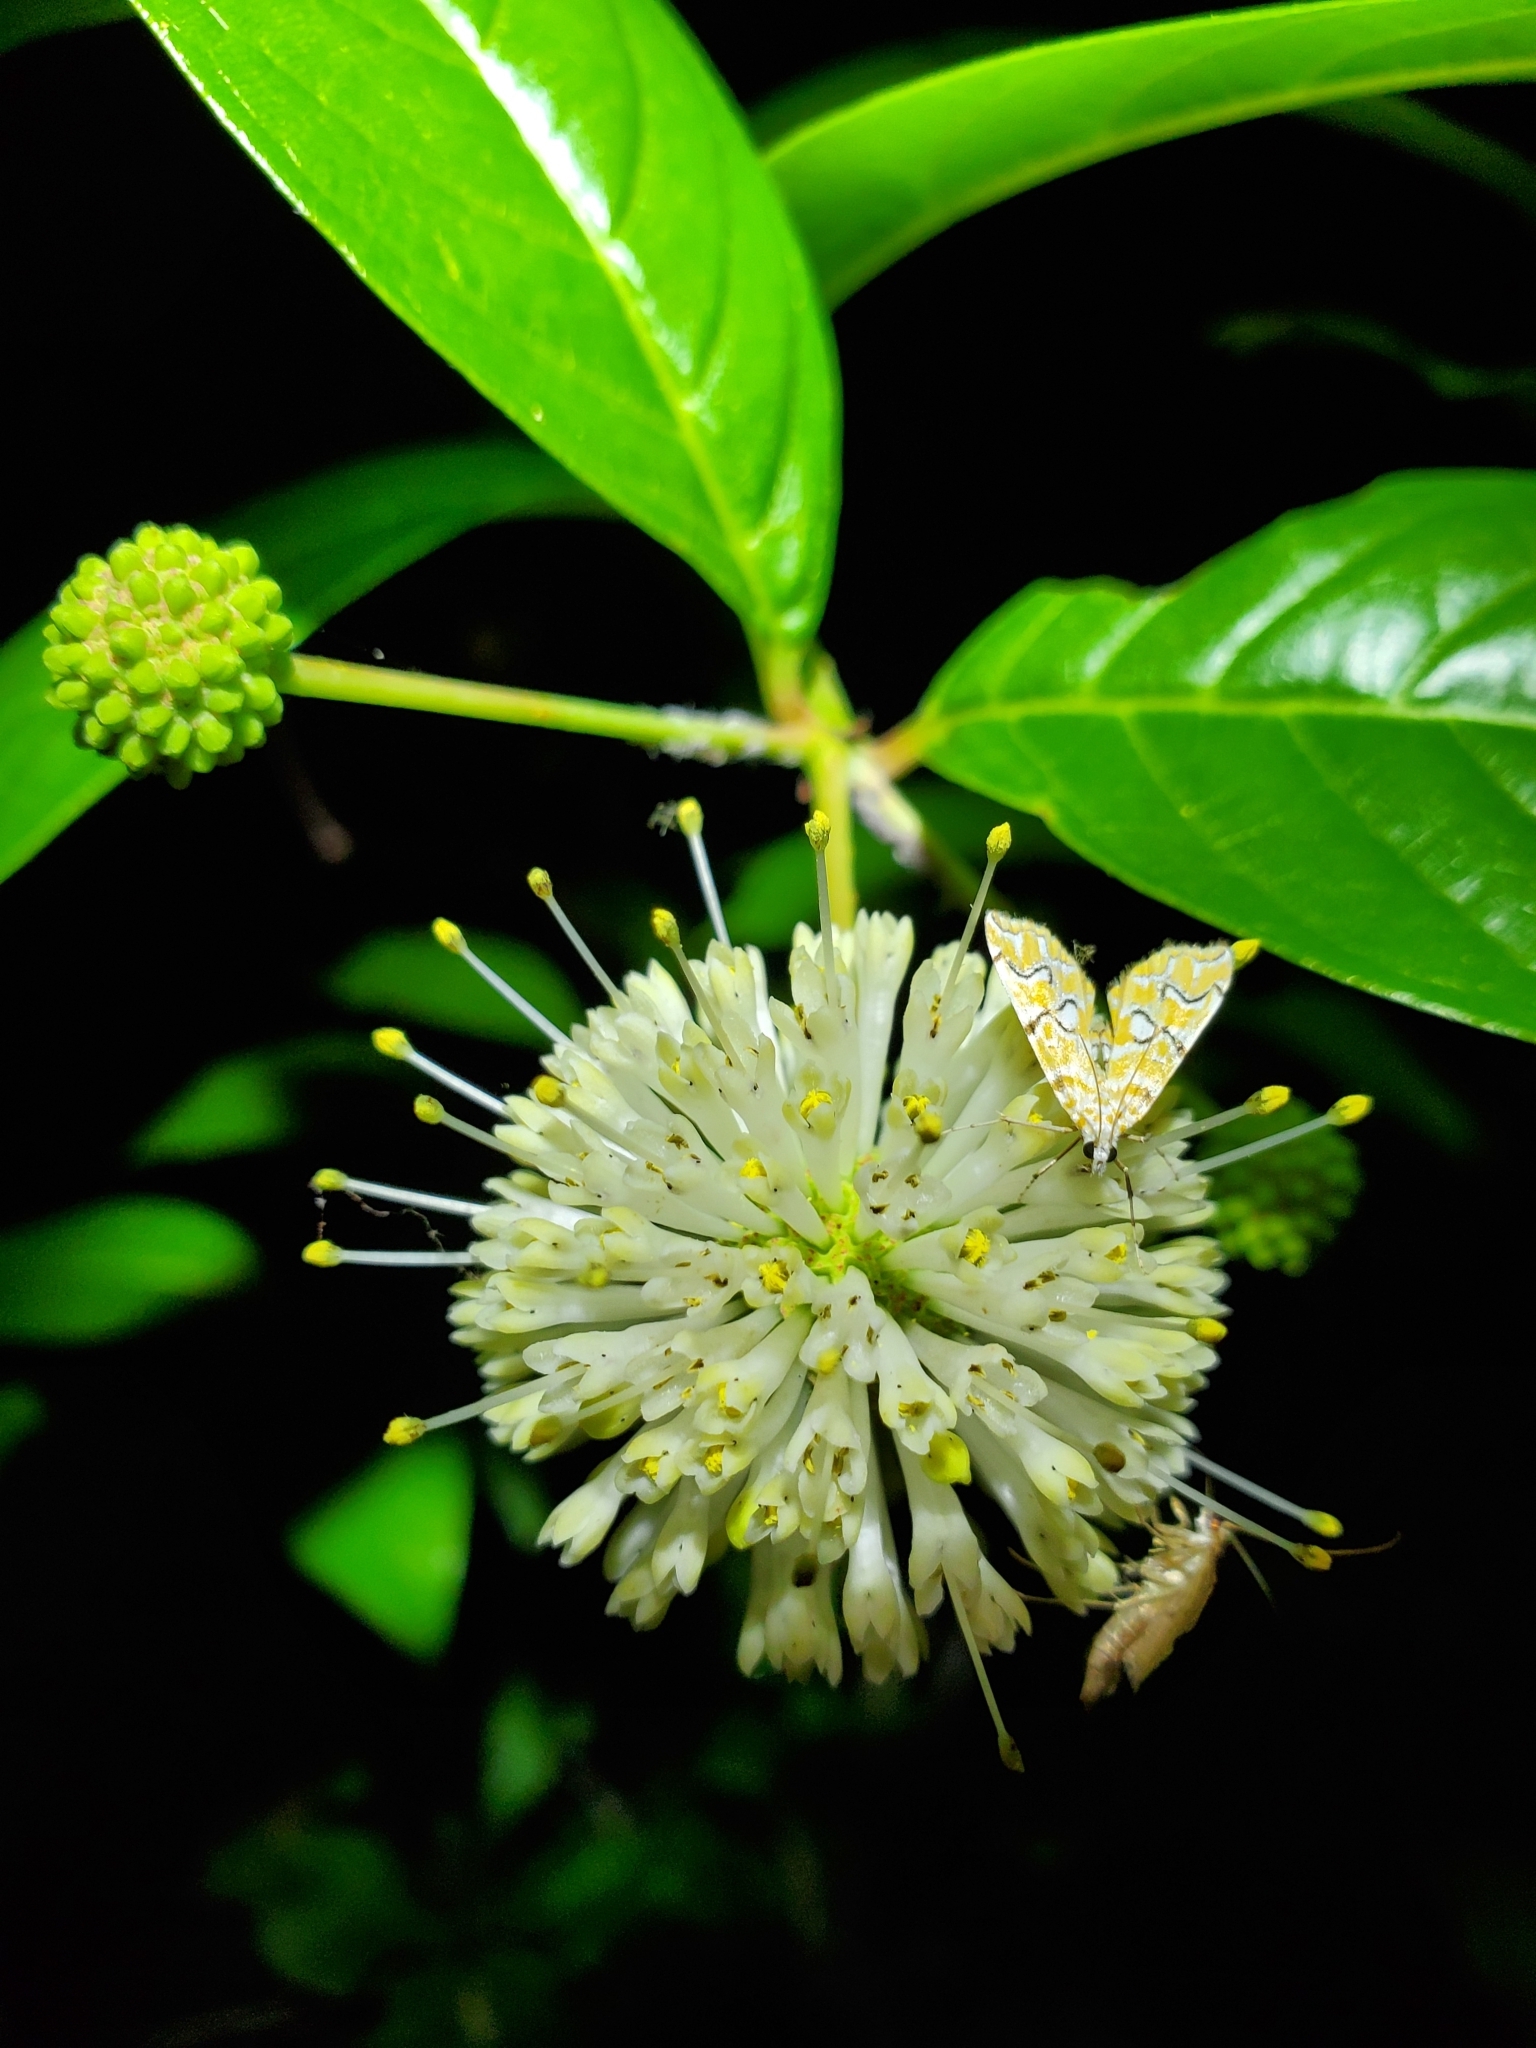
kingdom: Plantae
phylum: Tracheophyta
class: Magnoliopsida
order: Gentianales
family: Rubiaceae
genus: Cephalanthus
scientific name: Cephalanthus occidentalis
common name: Button-willow
